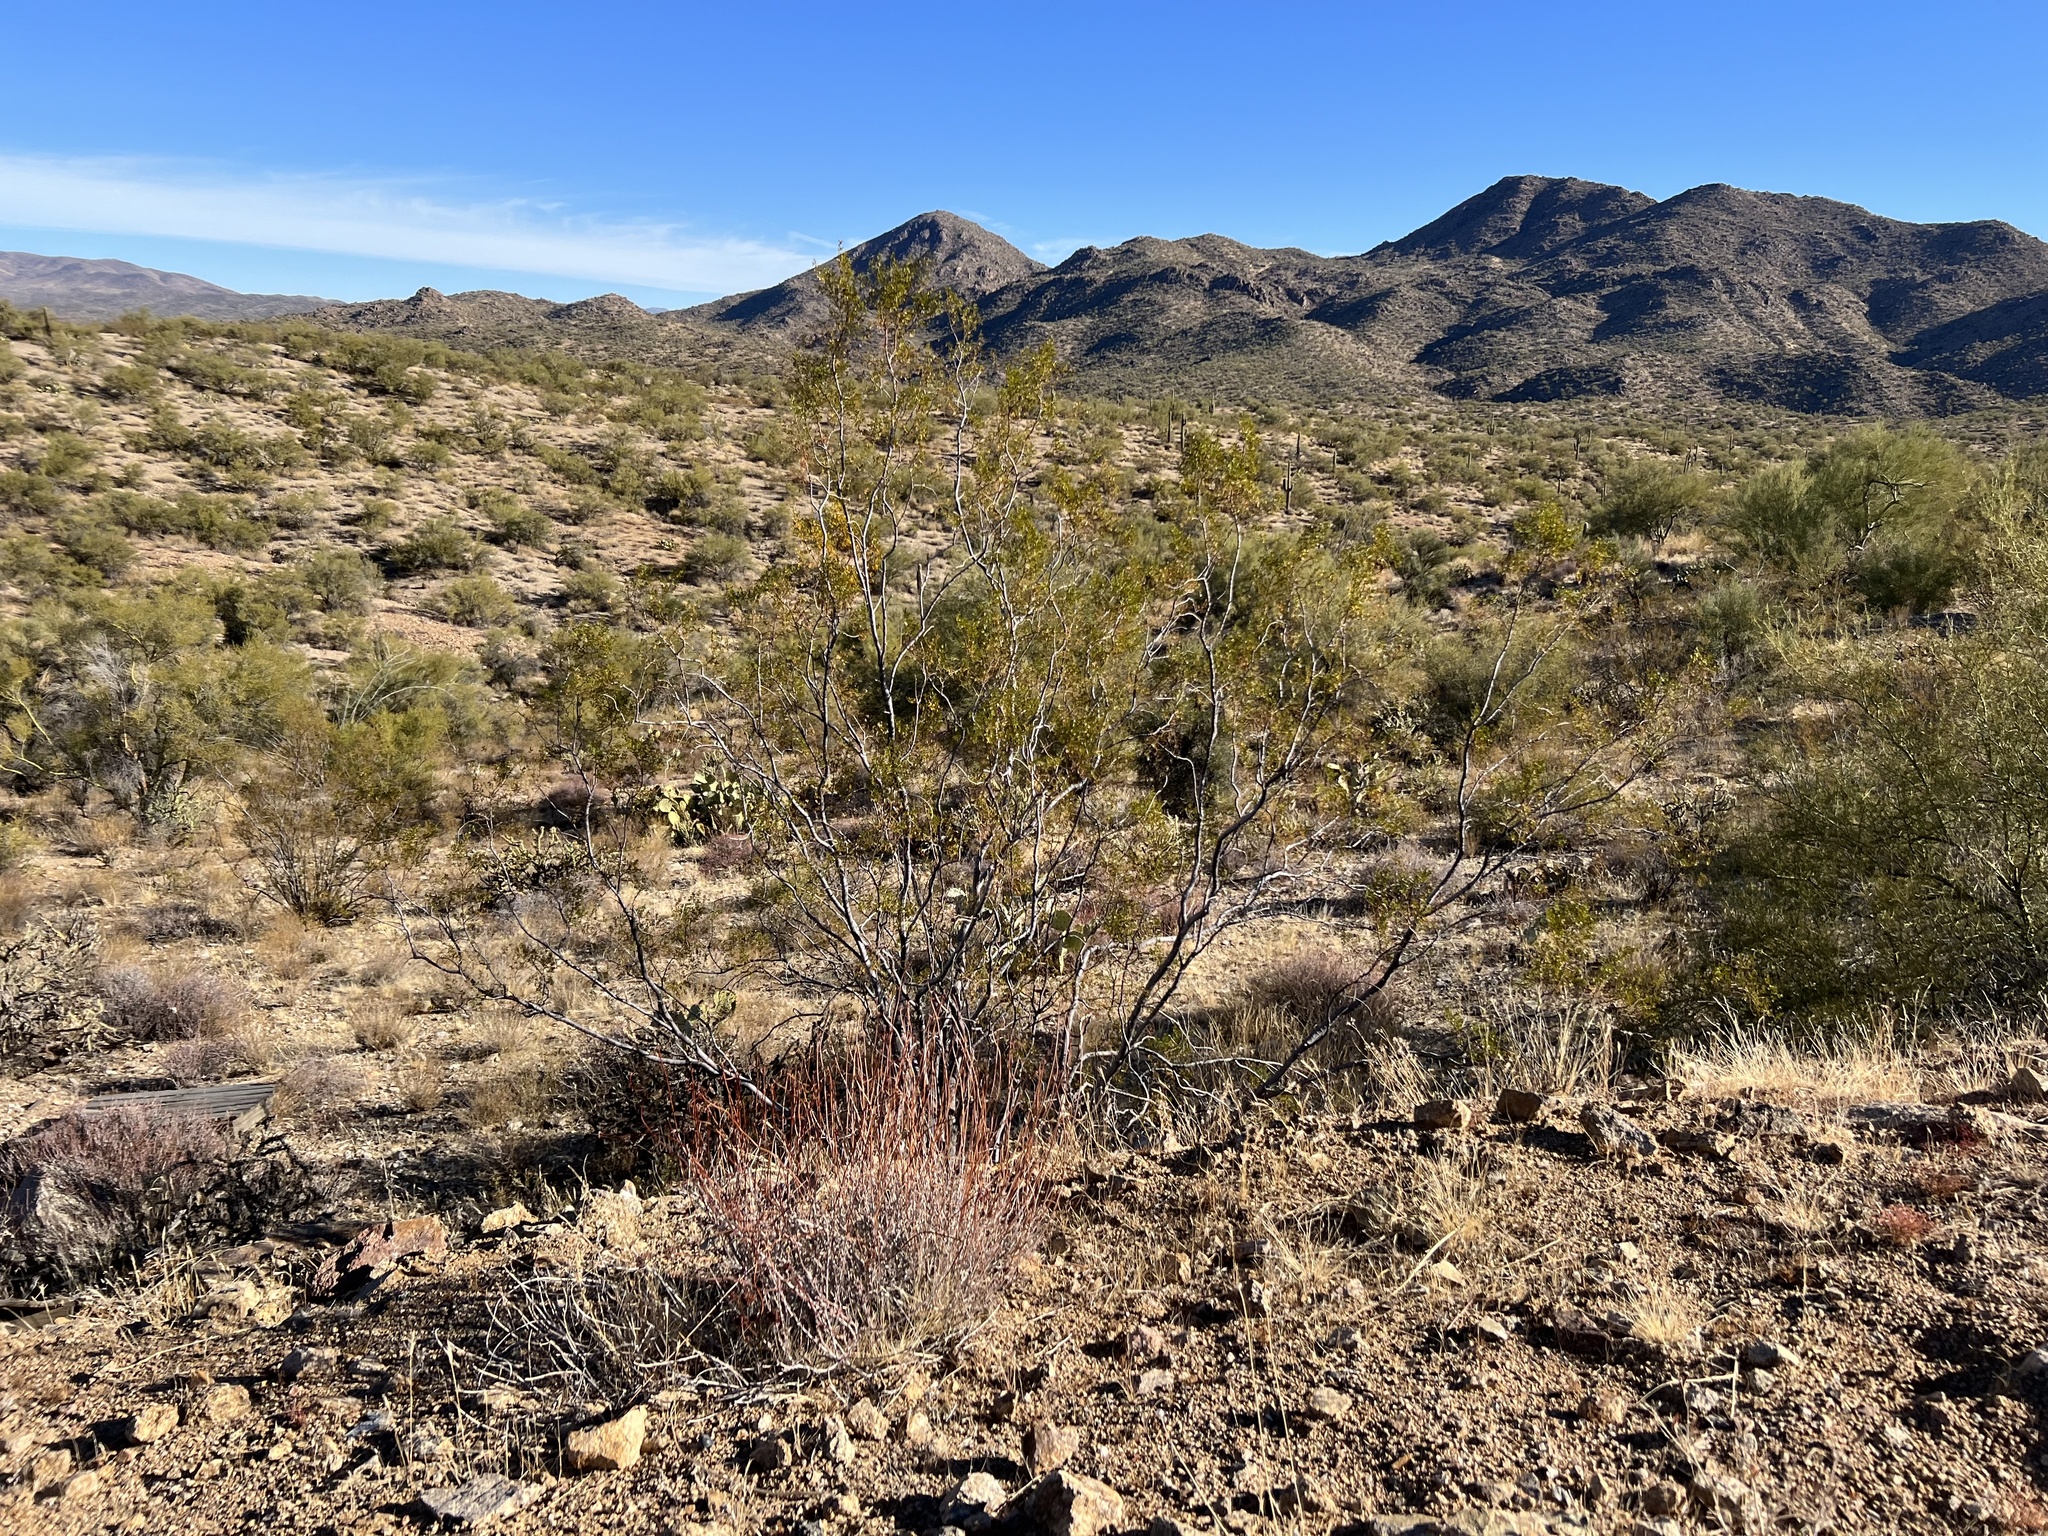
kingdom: Plantae
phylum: Tracheophyta
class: Magnoliopsida
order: Zygophyllales
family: Zygophyllaceae
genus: Larrea
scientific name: Larrea tridentata
